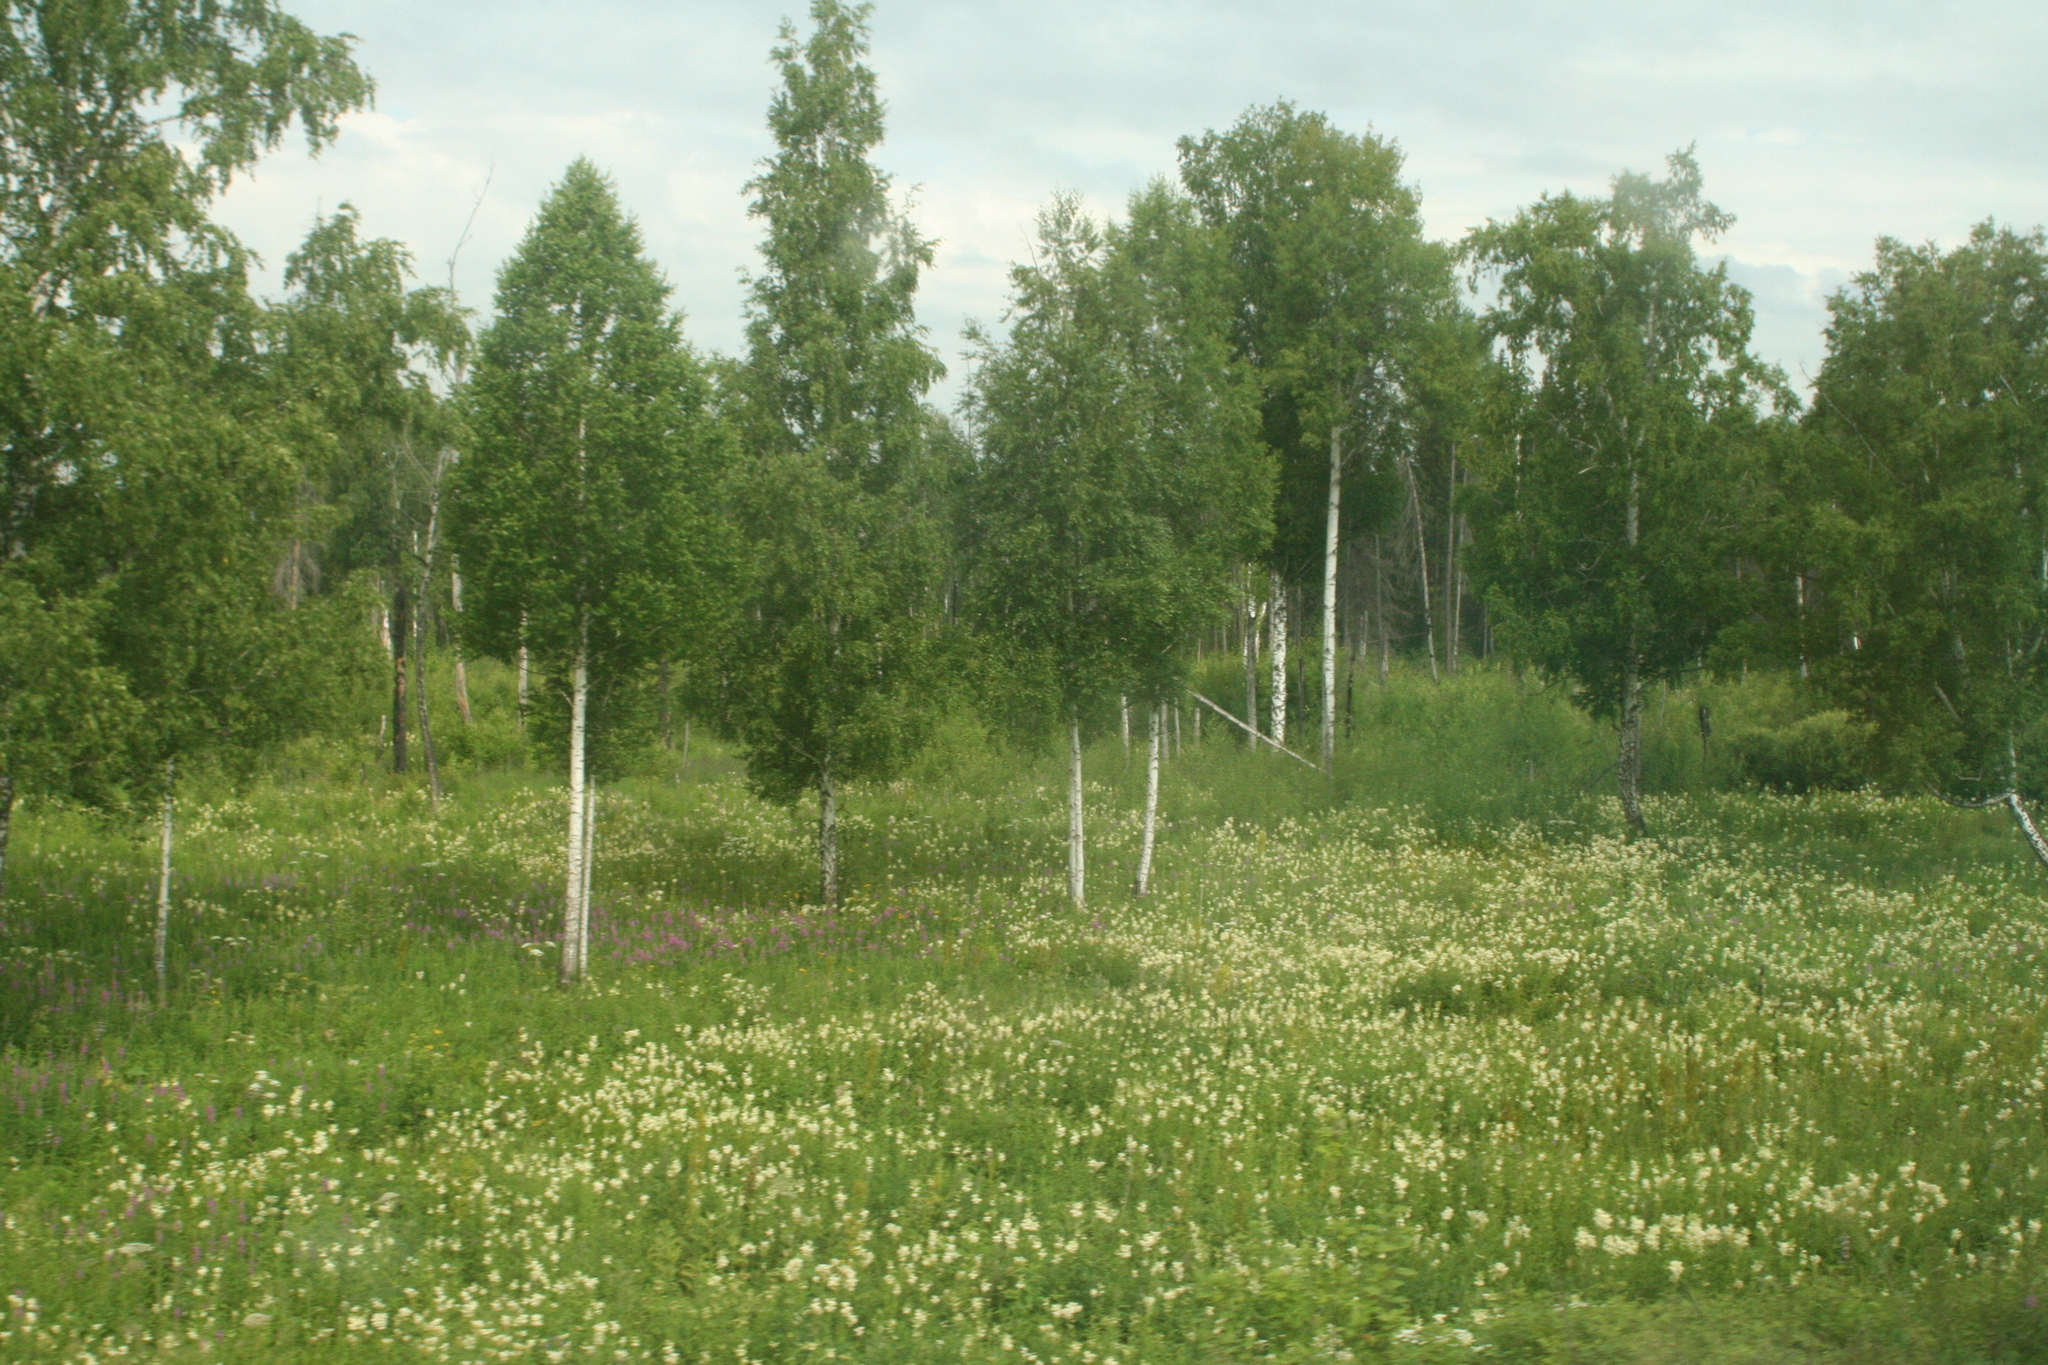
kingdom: Plantae
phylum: Tracheophyta
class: Magnoliopsida
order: Rosales
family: Rosaceae
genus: Filipendula
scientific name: Filipendula ulmaria
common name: Meadowsweet
